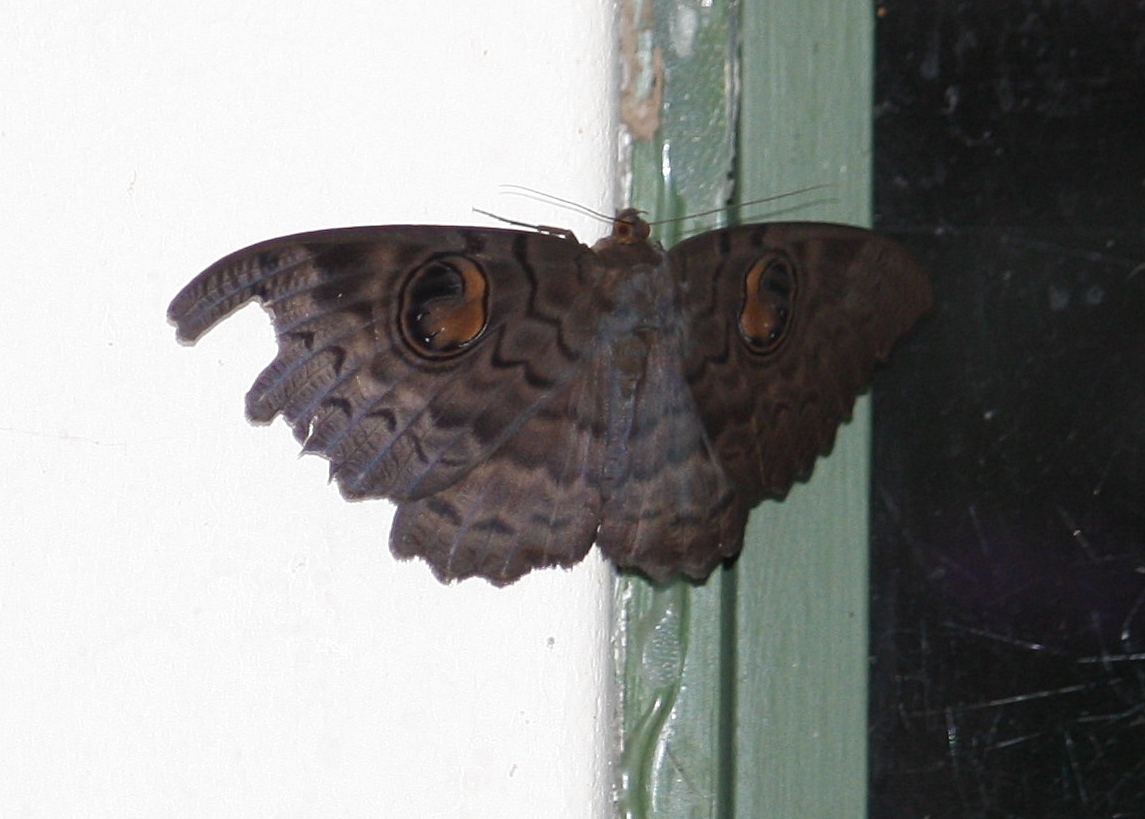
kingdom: Animalia
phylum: Arthropoda
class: Insecta
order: Lepidoptera
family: Erebidae
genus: Erebus
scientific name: Erebus walkeri
